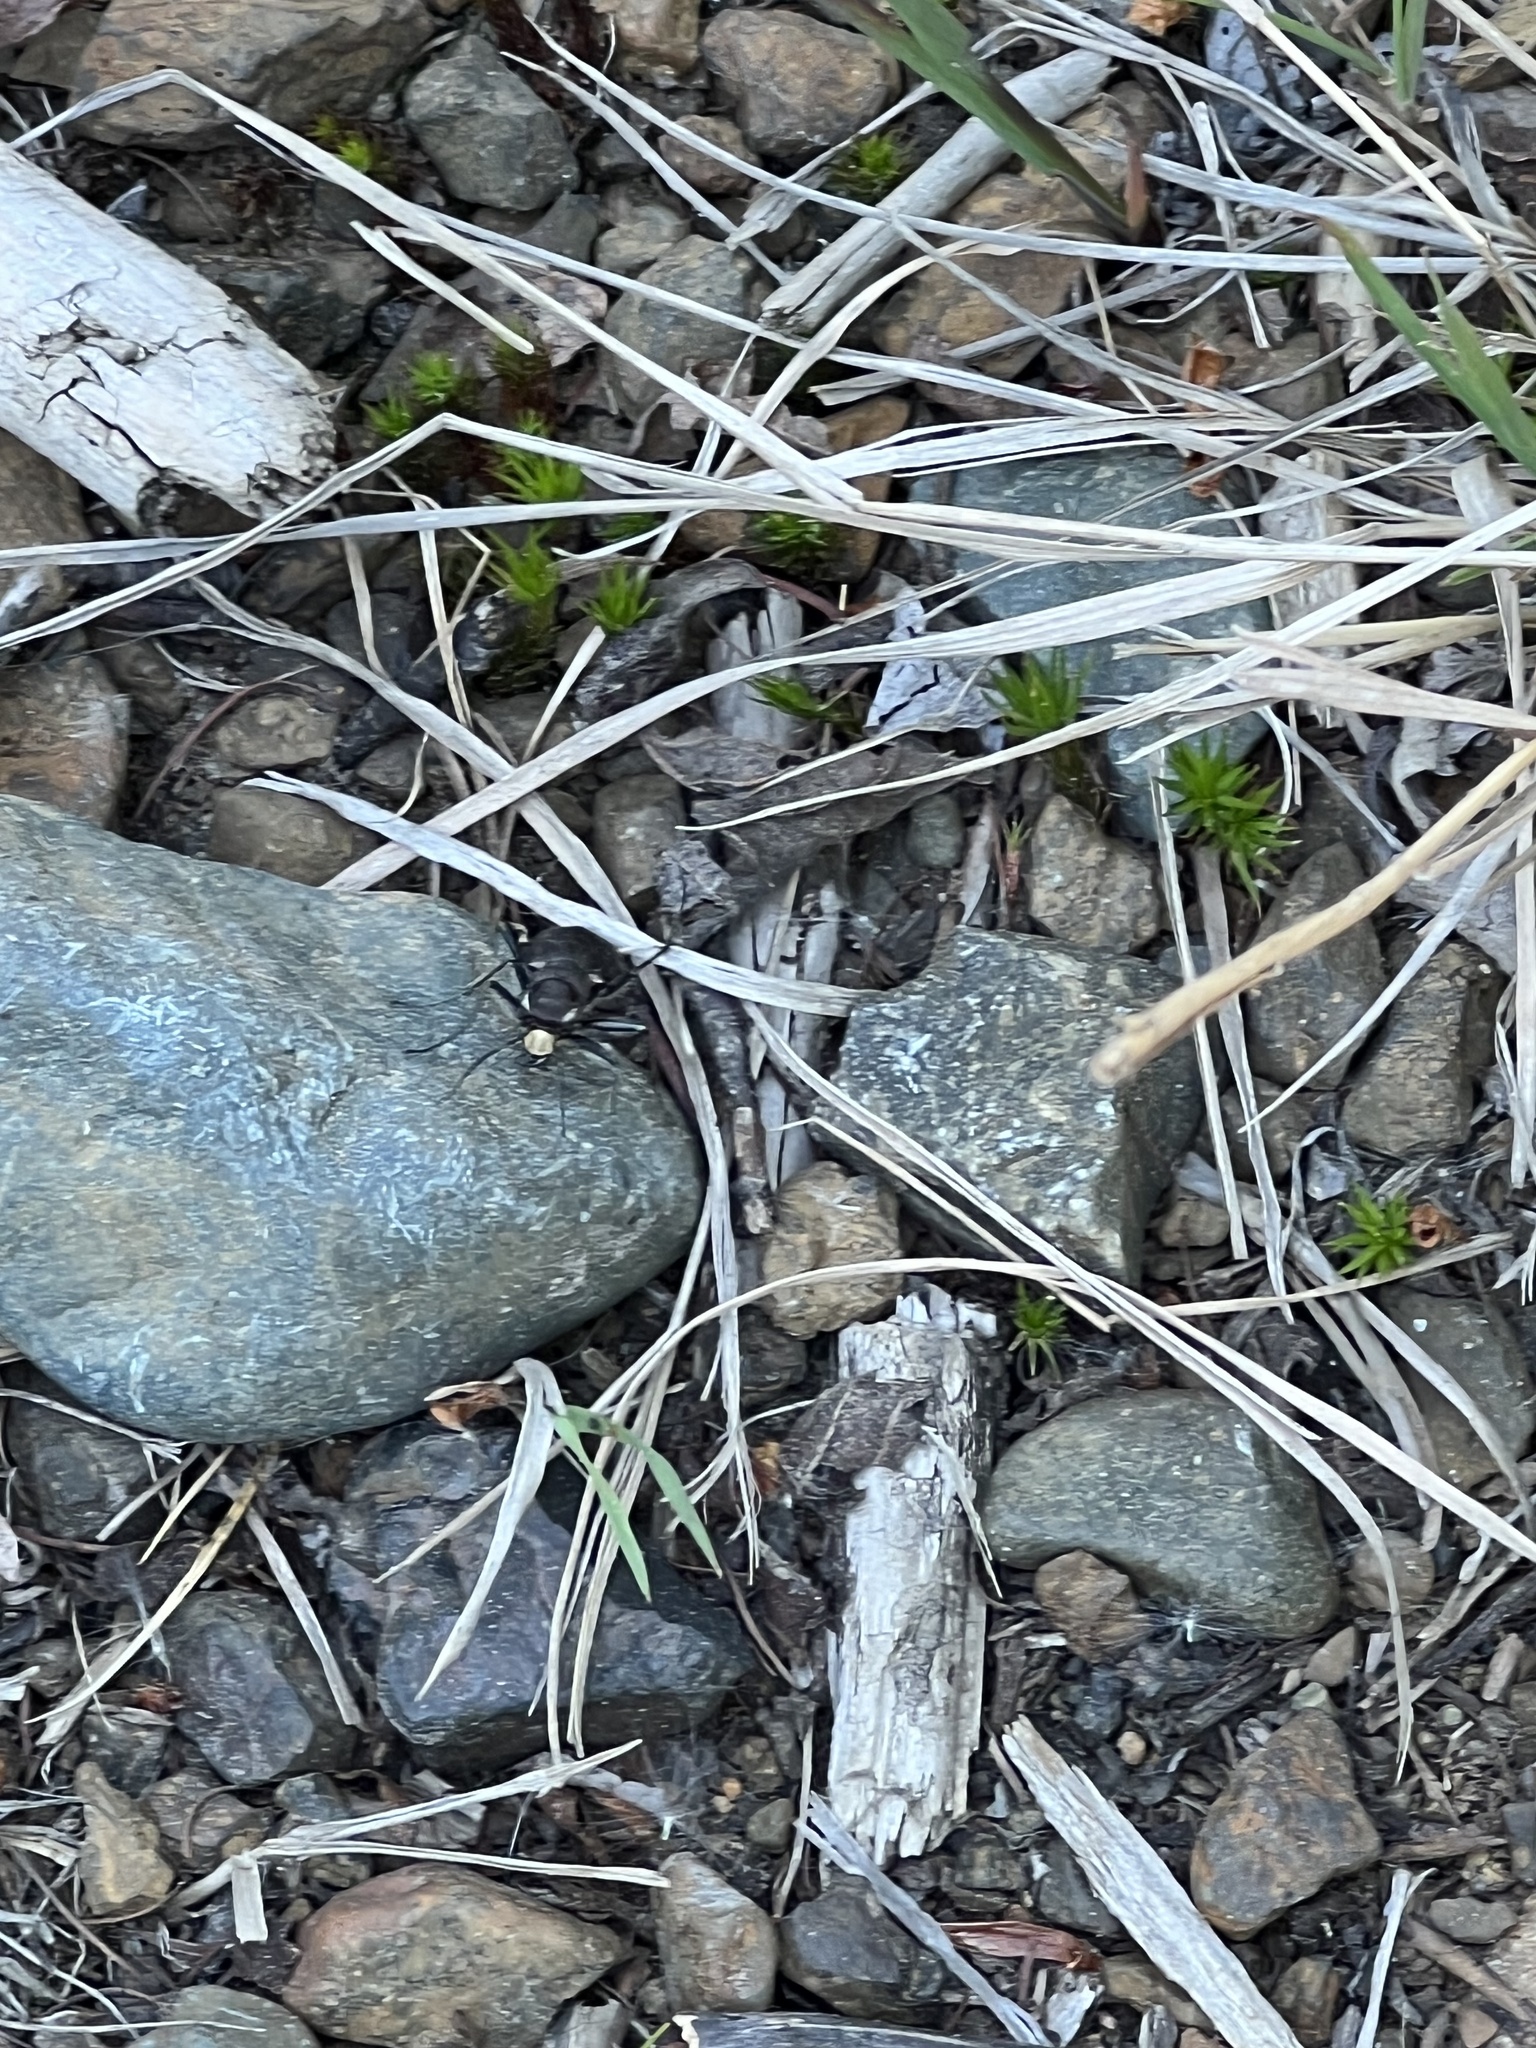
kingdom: Animalia
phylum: Arthropoda
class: Insecta
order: Coleoptera
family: Carabidae
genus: Cicindela
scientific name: Cicindela longilabris
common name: Boreal long-lipped tiger beetle
